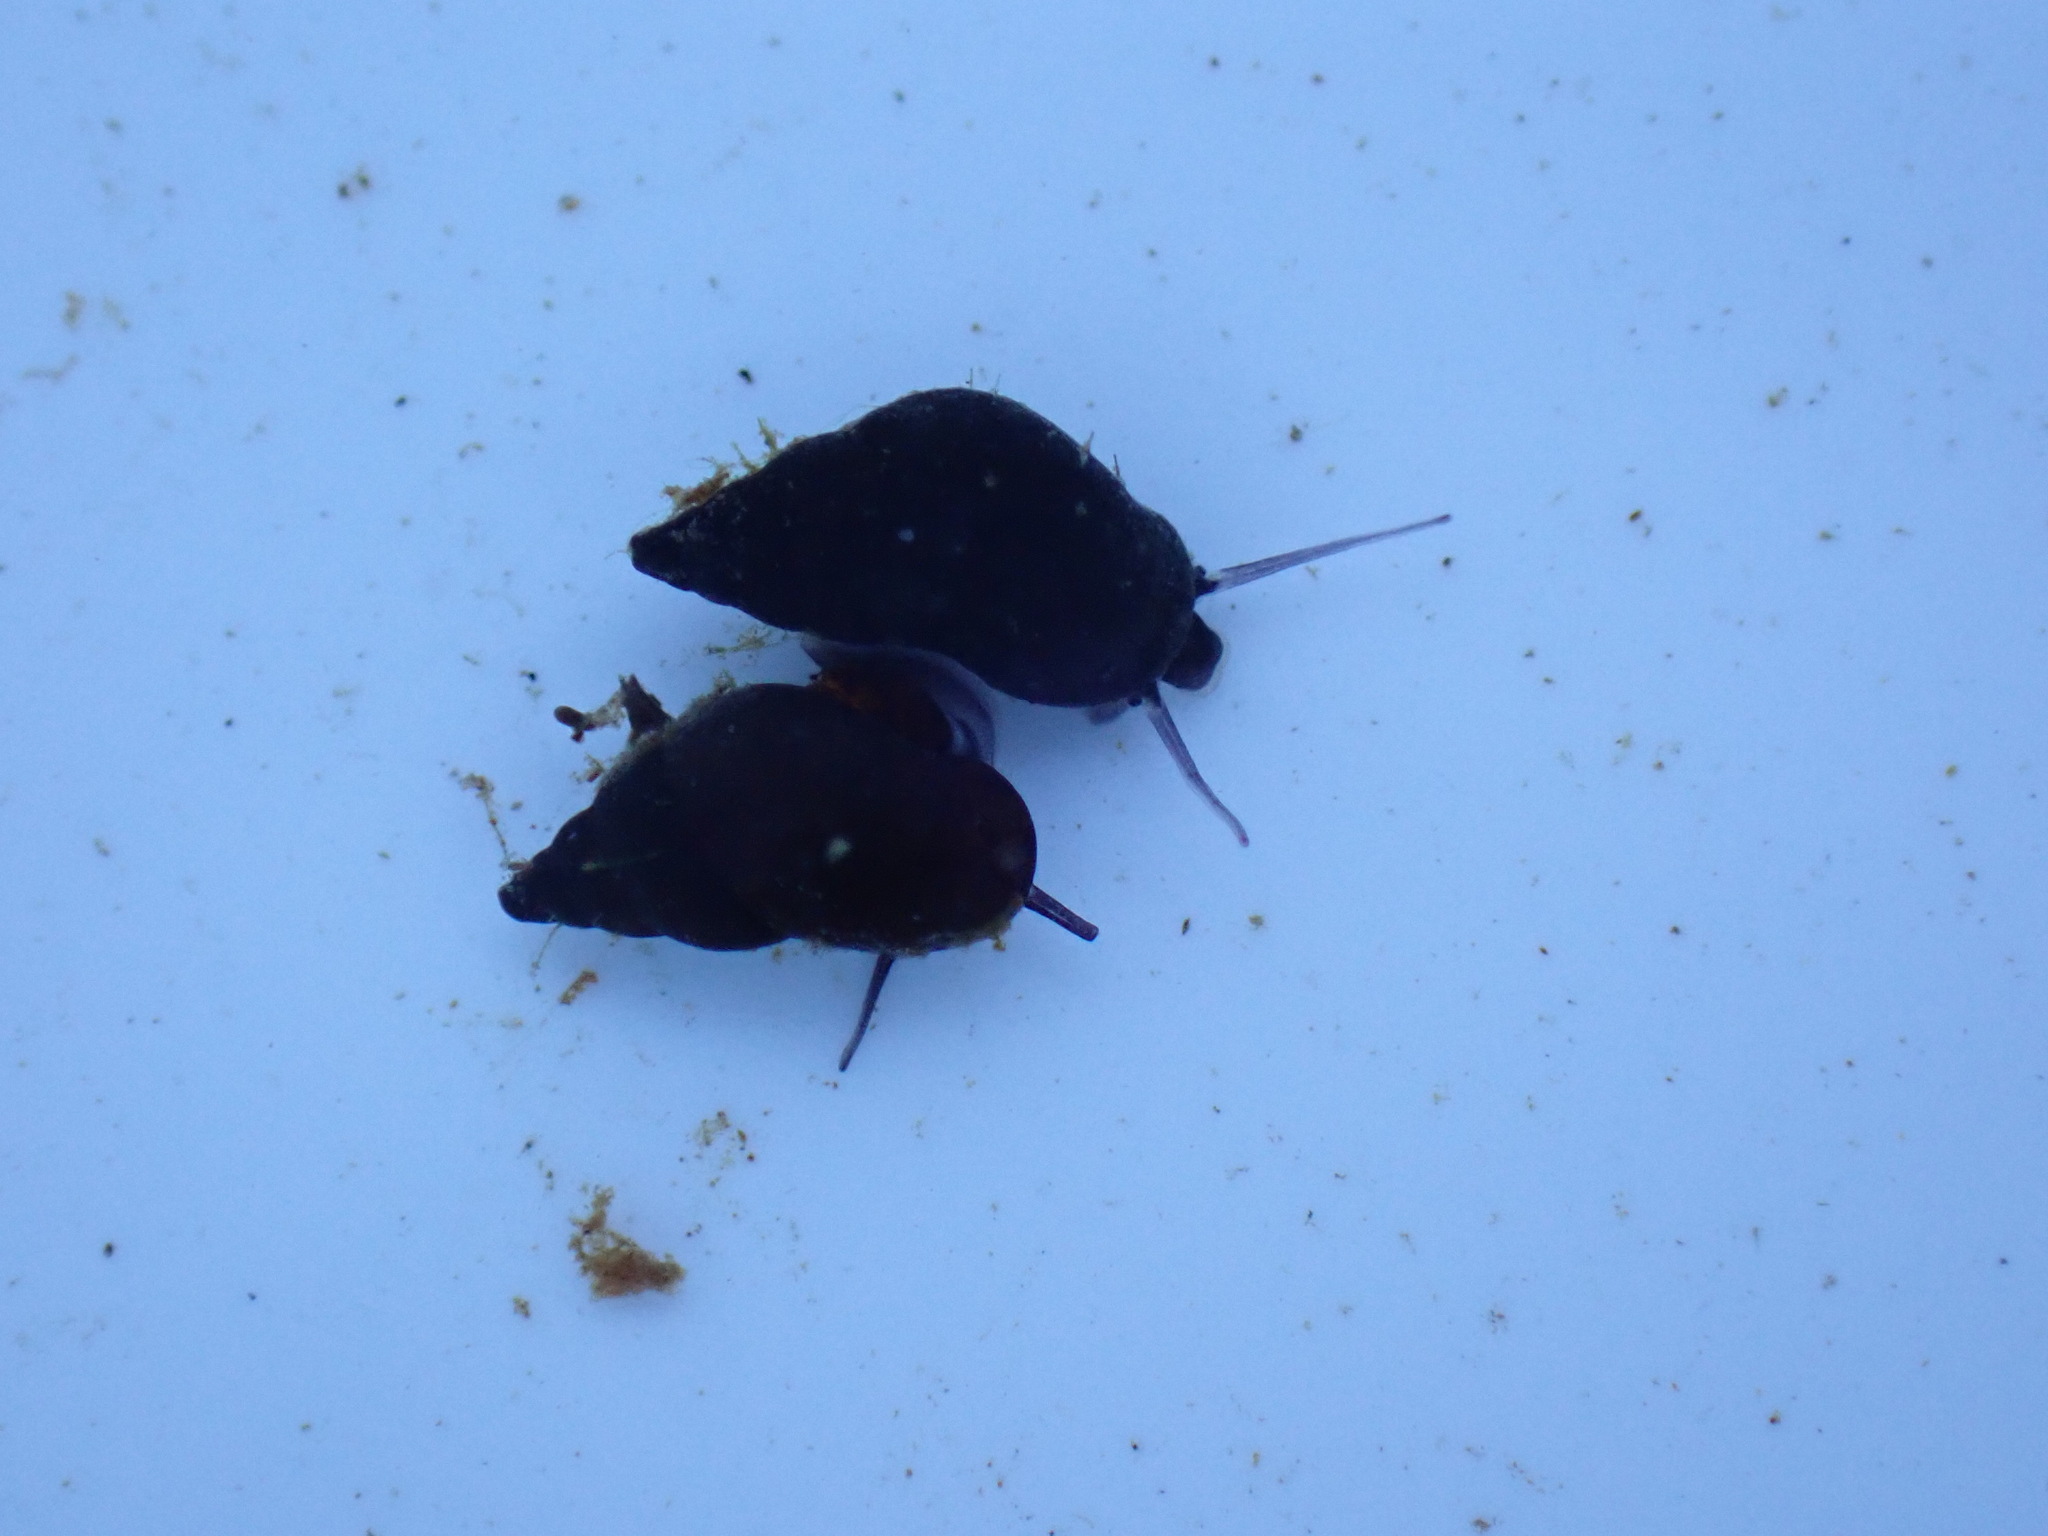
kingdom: Animalia
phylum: Mollusca
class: Gastropoda
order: Littorinimorpha
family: Tateidae
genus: Potamopyrgus
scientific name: Potamopyrgus antipodarum
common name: Jenkins' spire snail
